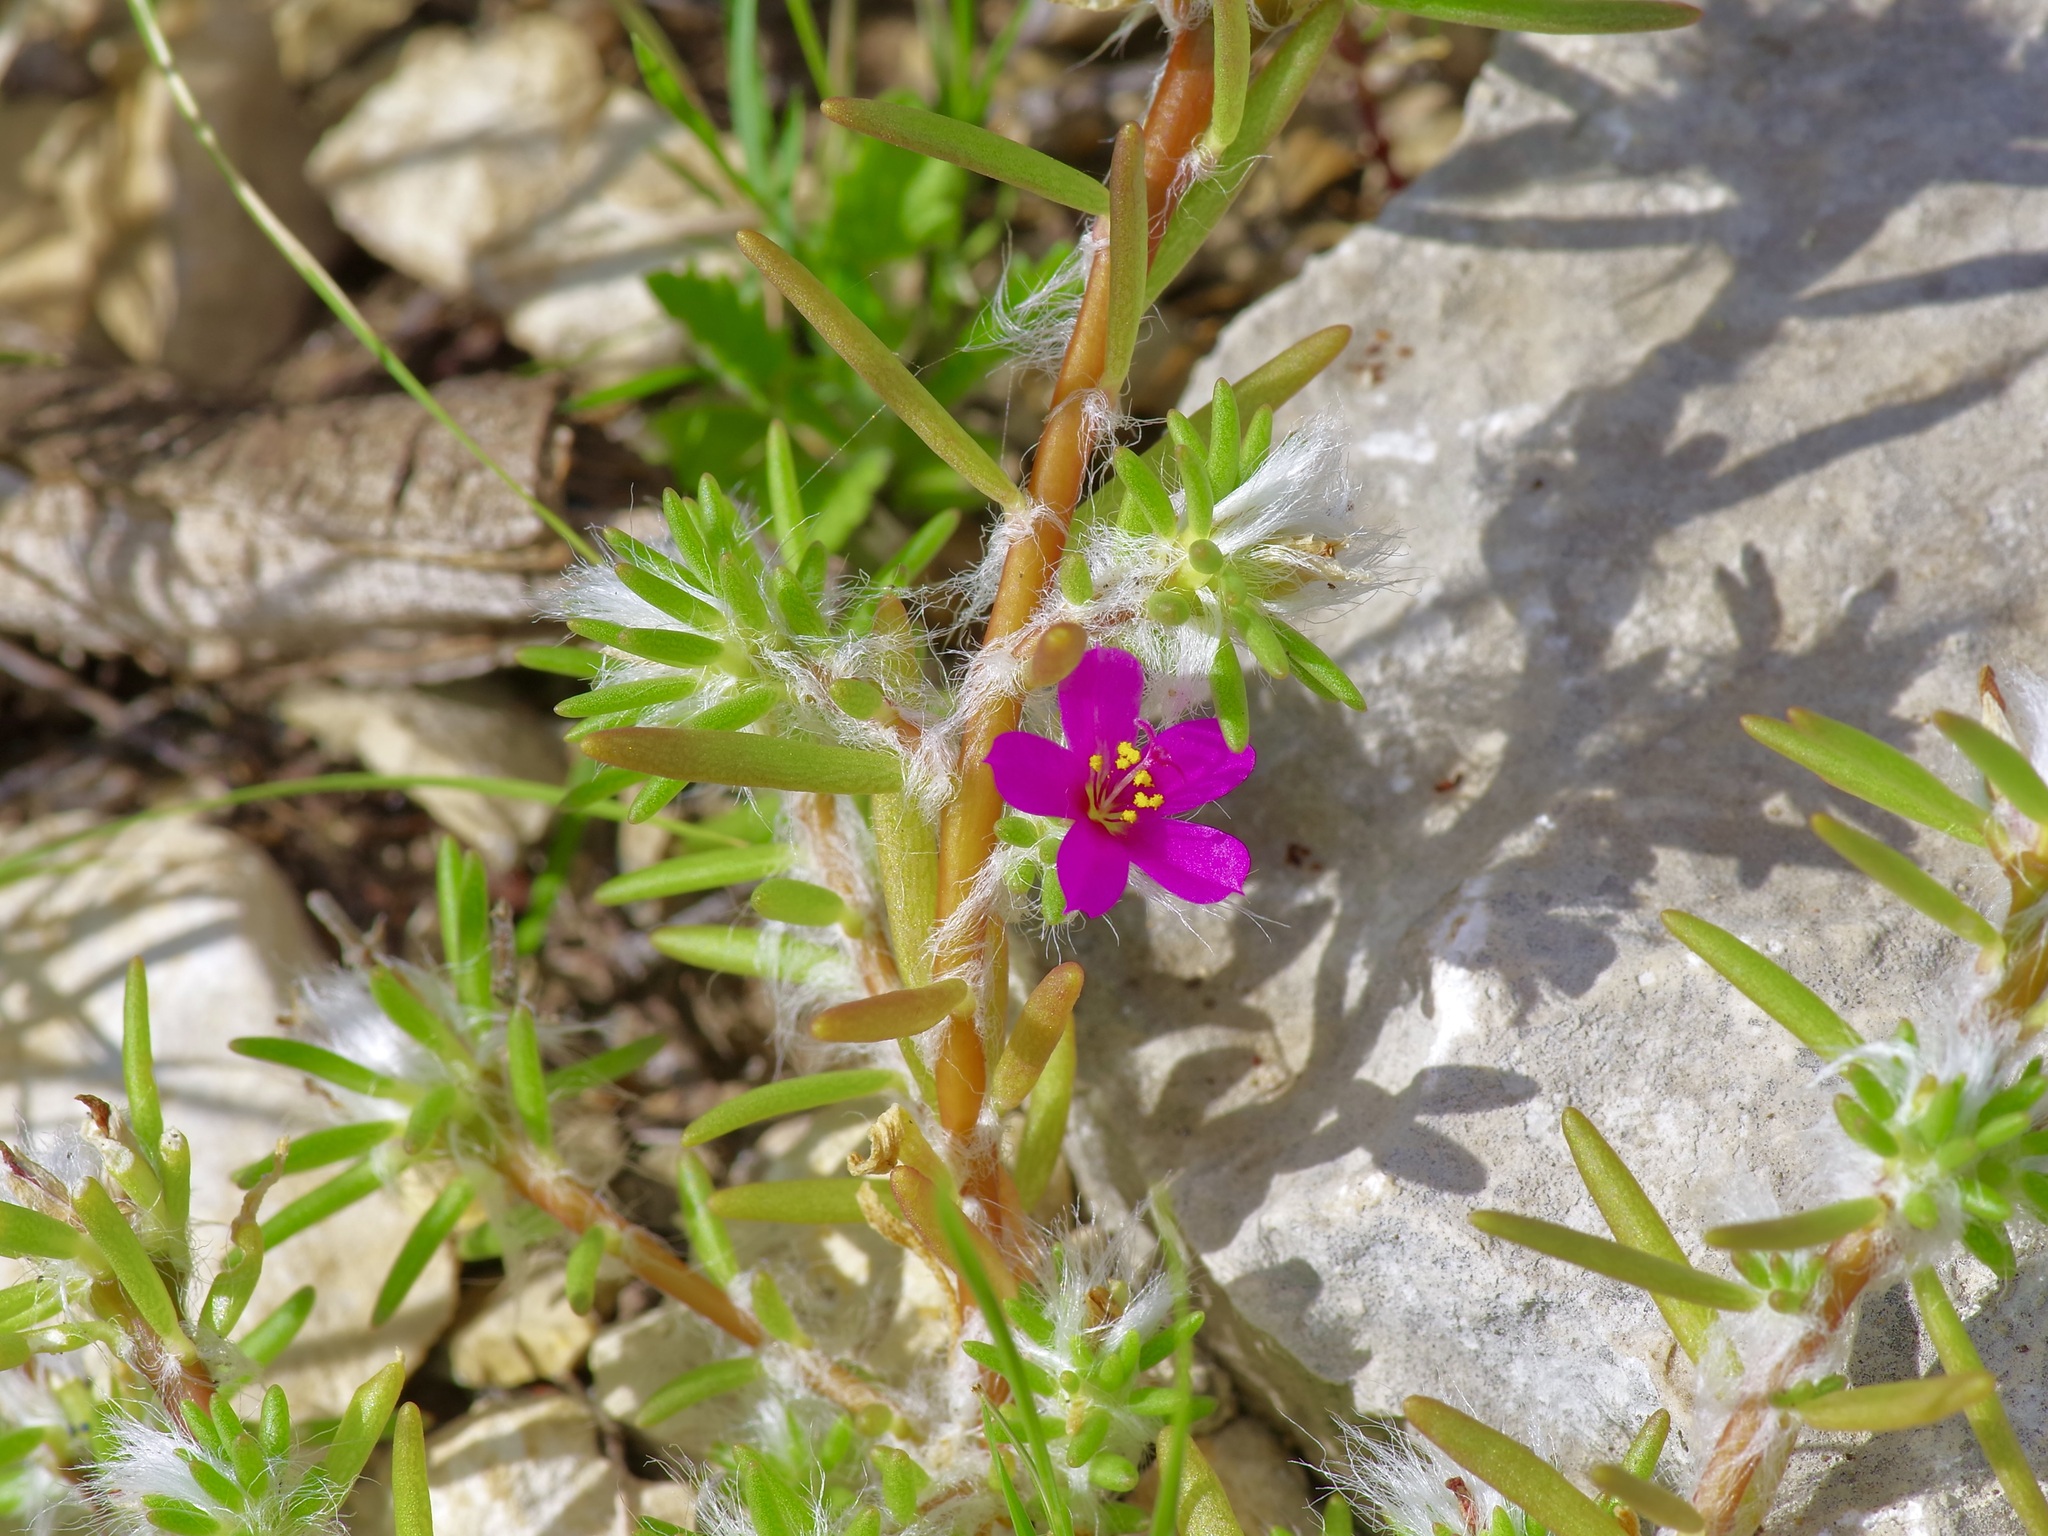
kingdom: Plantae
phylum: Tracheophyta
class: Magnoliopsida
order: Caryophyllales
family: Portulacaceae
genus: Portulaca
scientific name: Portulaca pilosa
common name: Kiss me quick
